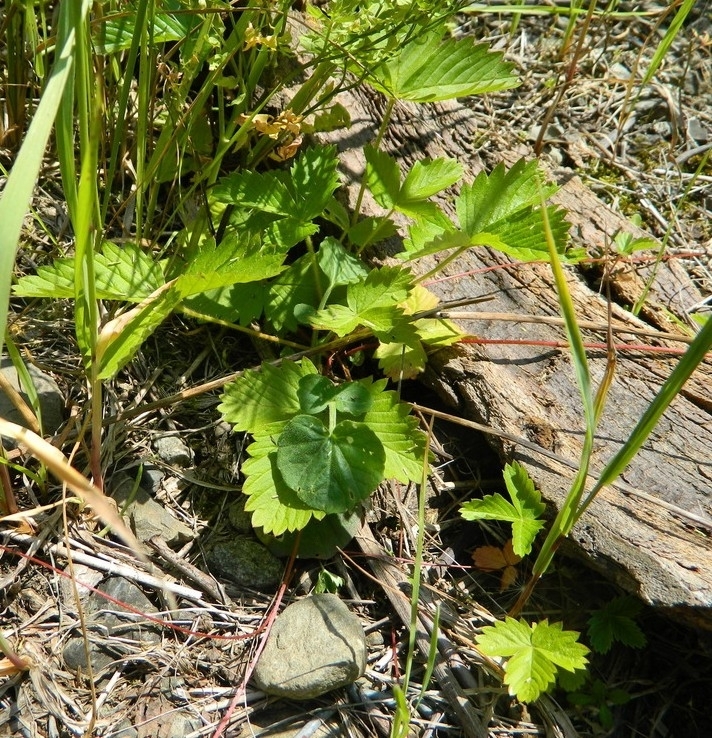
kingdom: Plantae
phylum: Tracheophyta
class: Magnoliopsida
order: Rosales
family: Rosaceae
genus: Fragaria
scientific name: Fragaria vesca
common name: Wild strawberry
